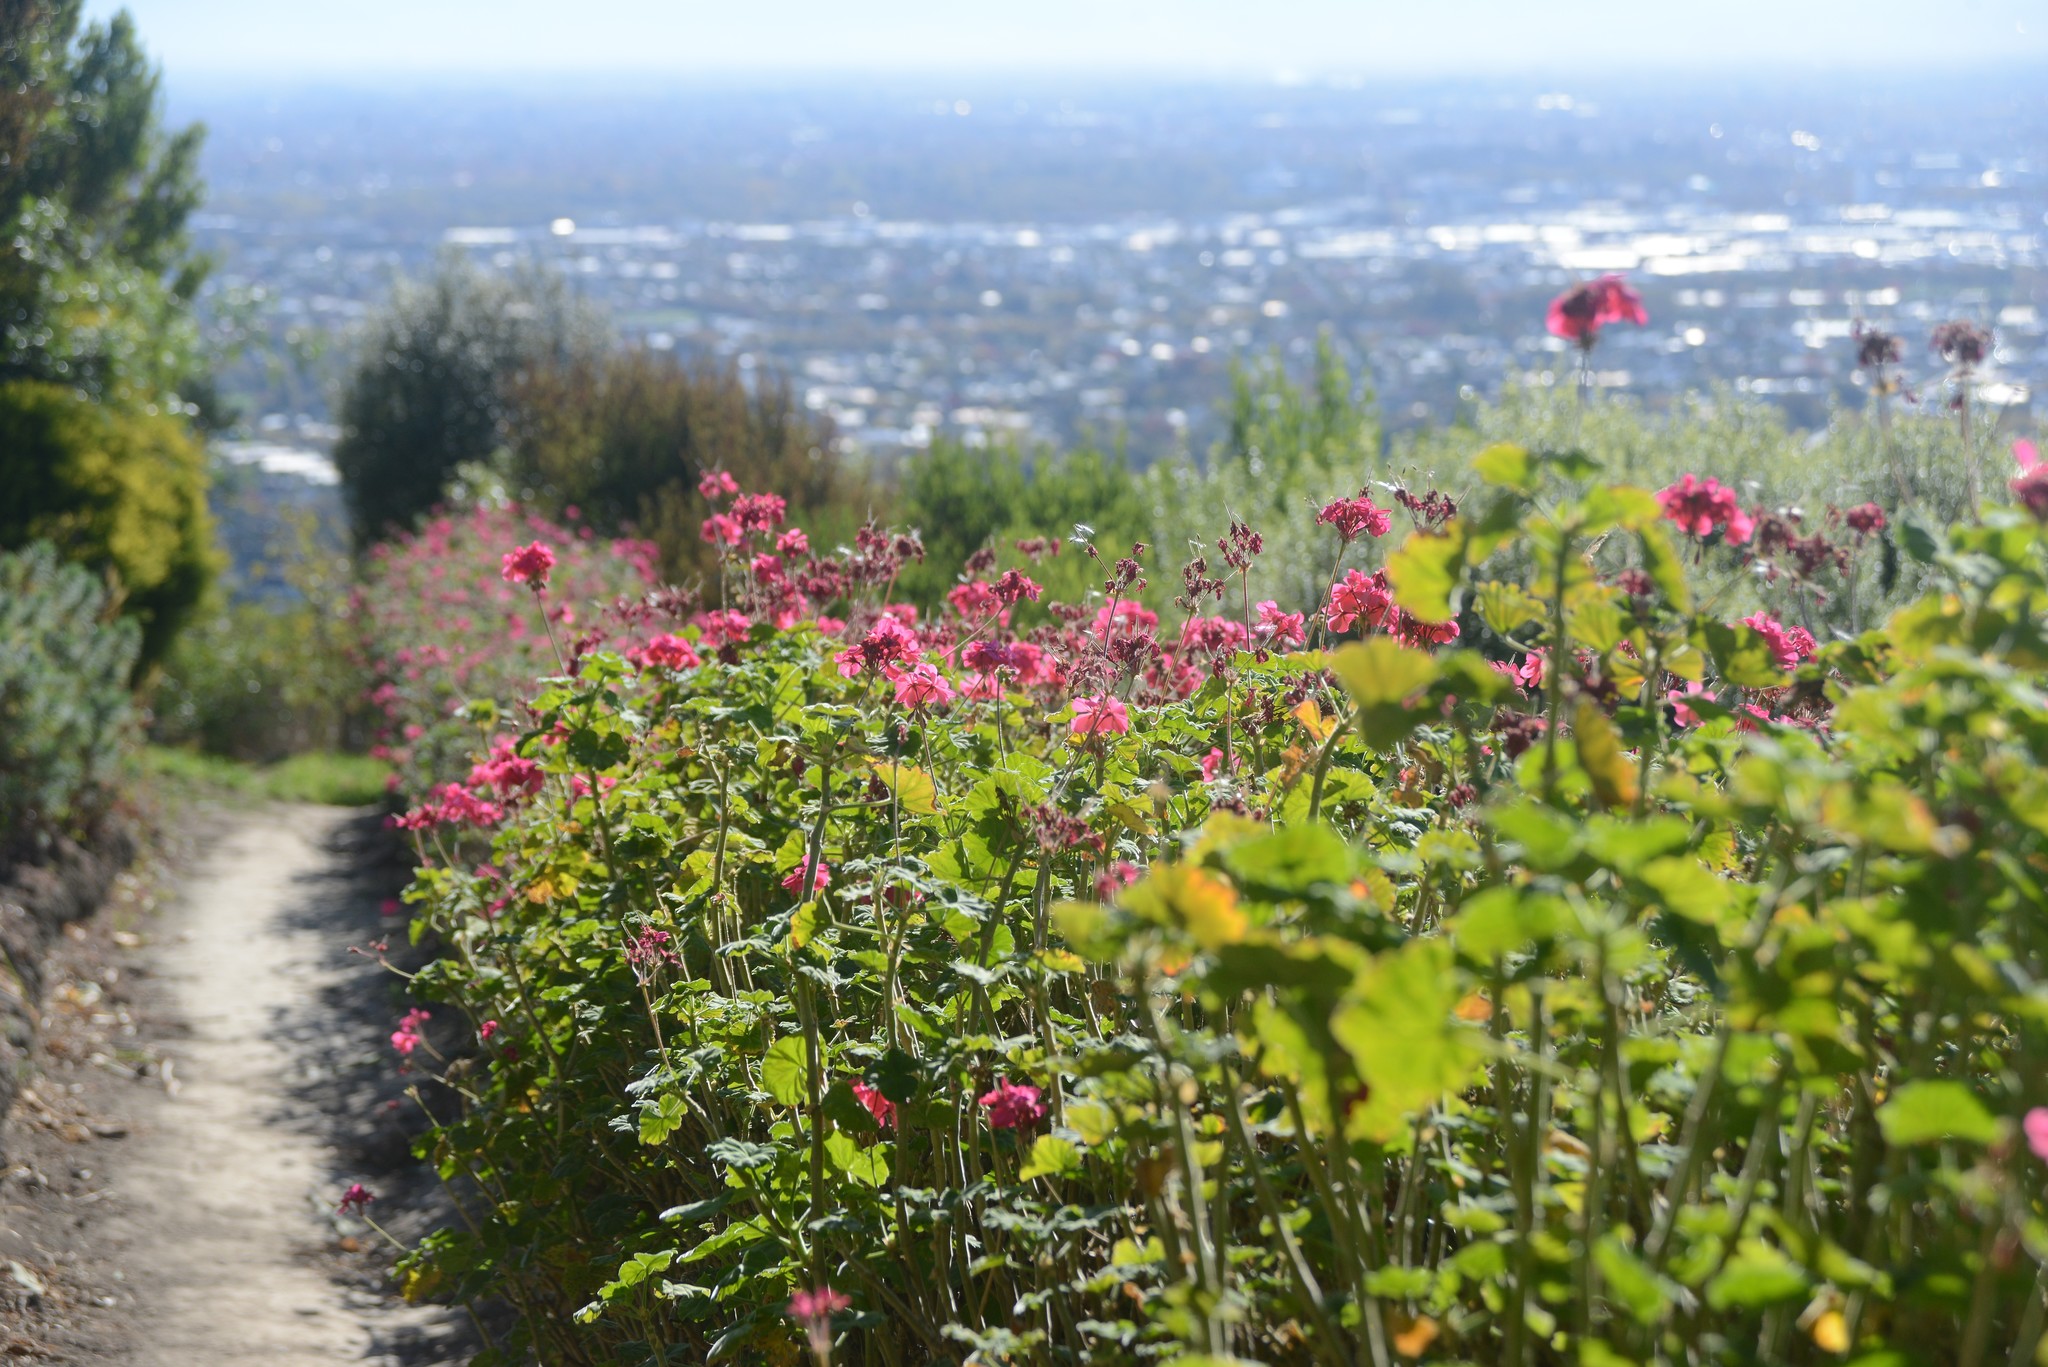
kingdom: Plantae
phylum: Tracheophyta
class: Magnoliopsida
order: Geraniales
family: Geraniaceae
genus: Pelargonium
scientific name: Pelargonium hybridum
